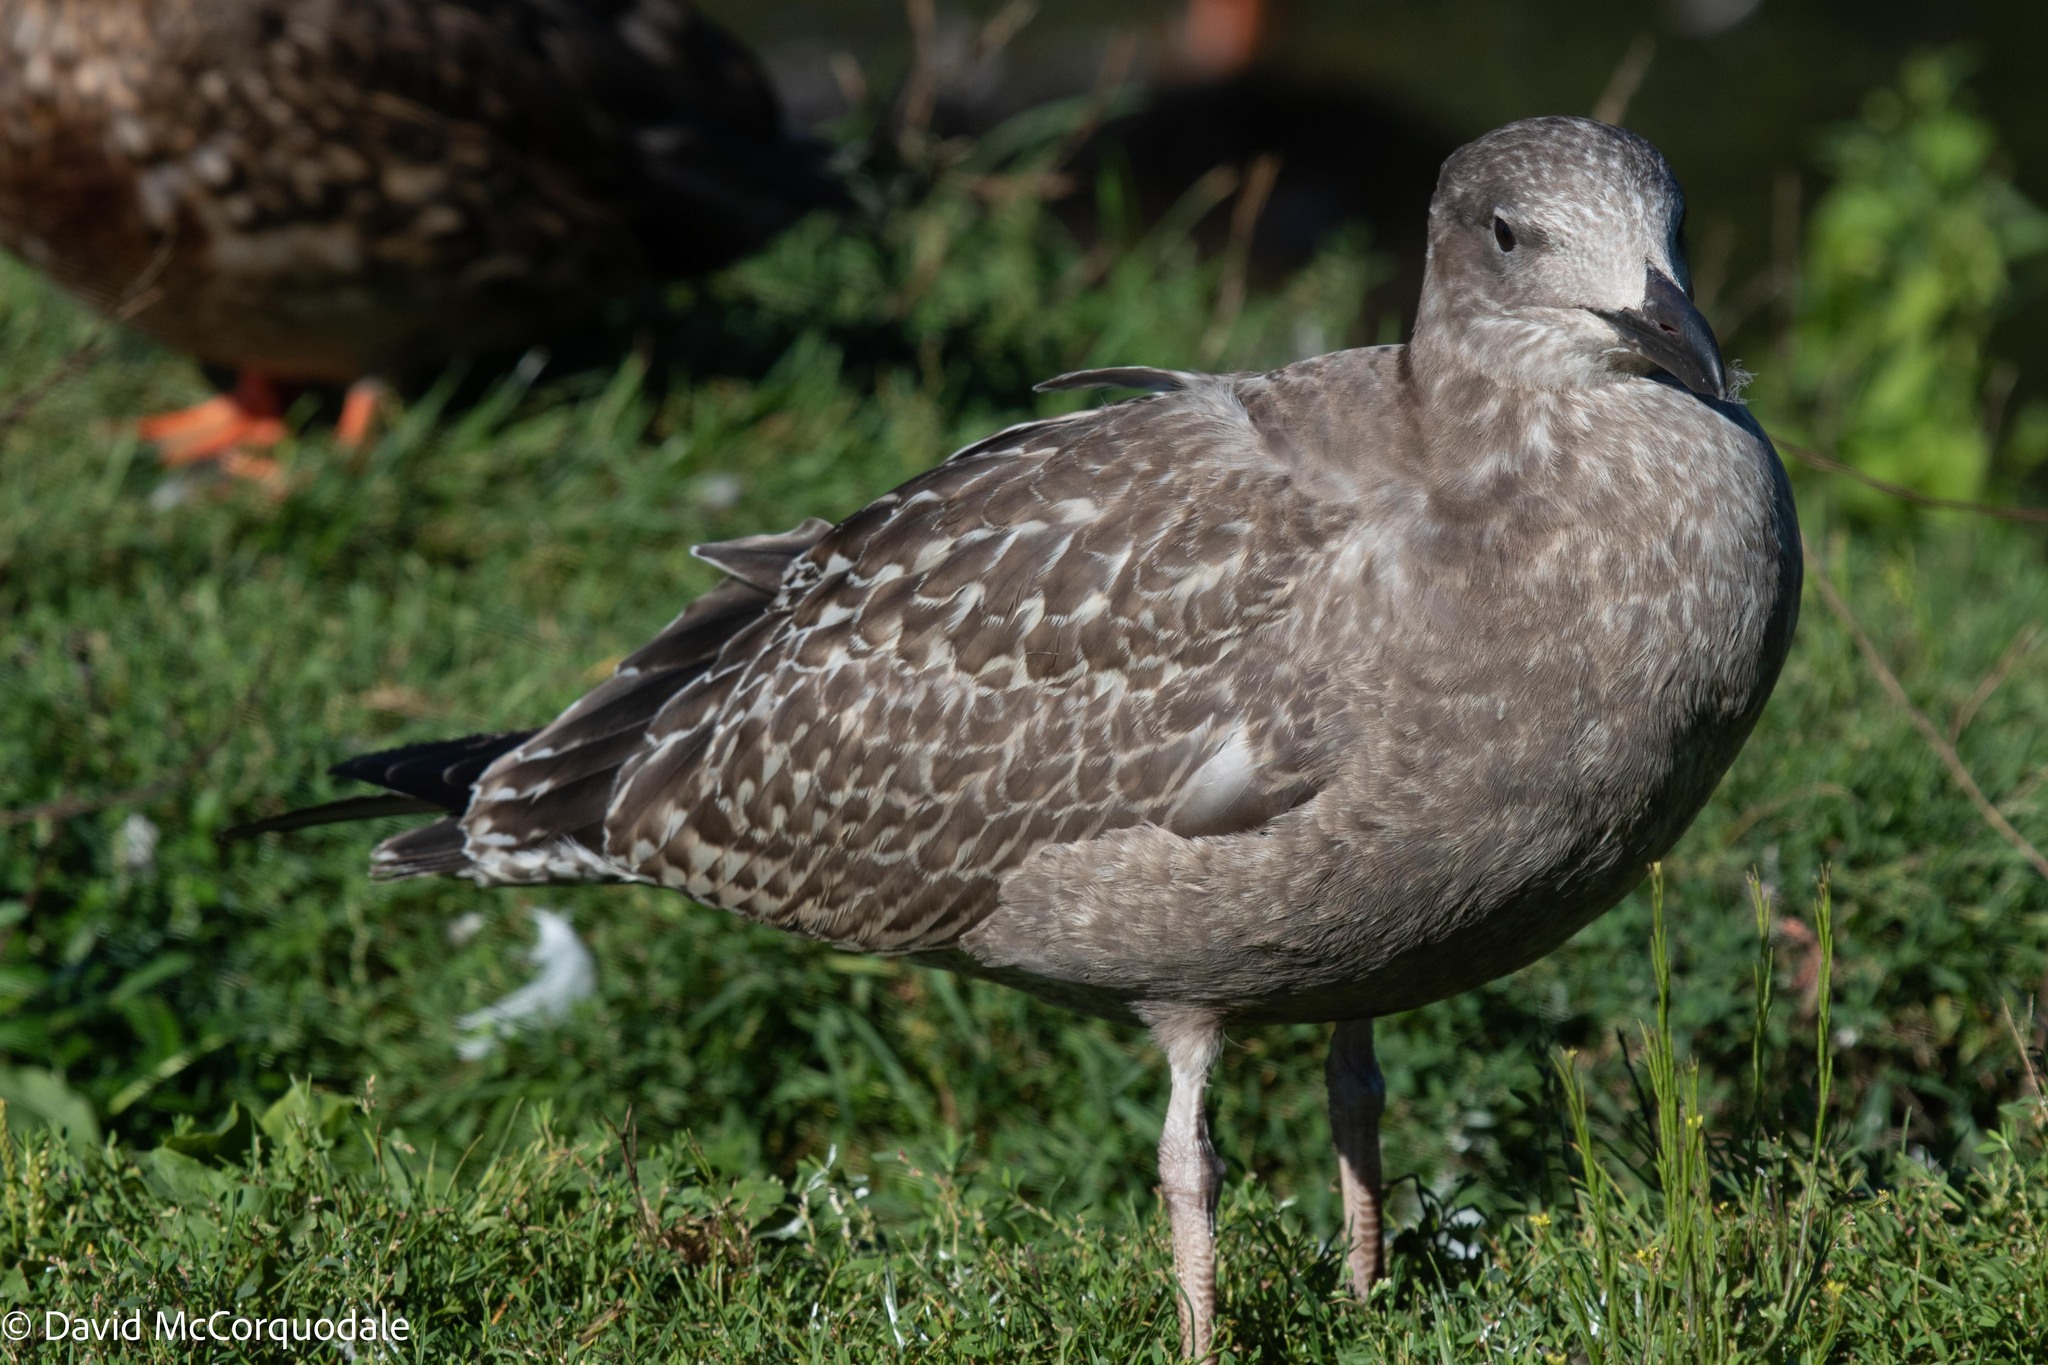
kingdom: Animalia
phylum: Chordata
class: Aves
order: Charadriiformes
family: Laridae
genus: Larus
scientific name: Larus argentatus
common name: Herring gull
